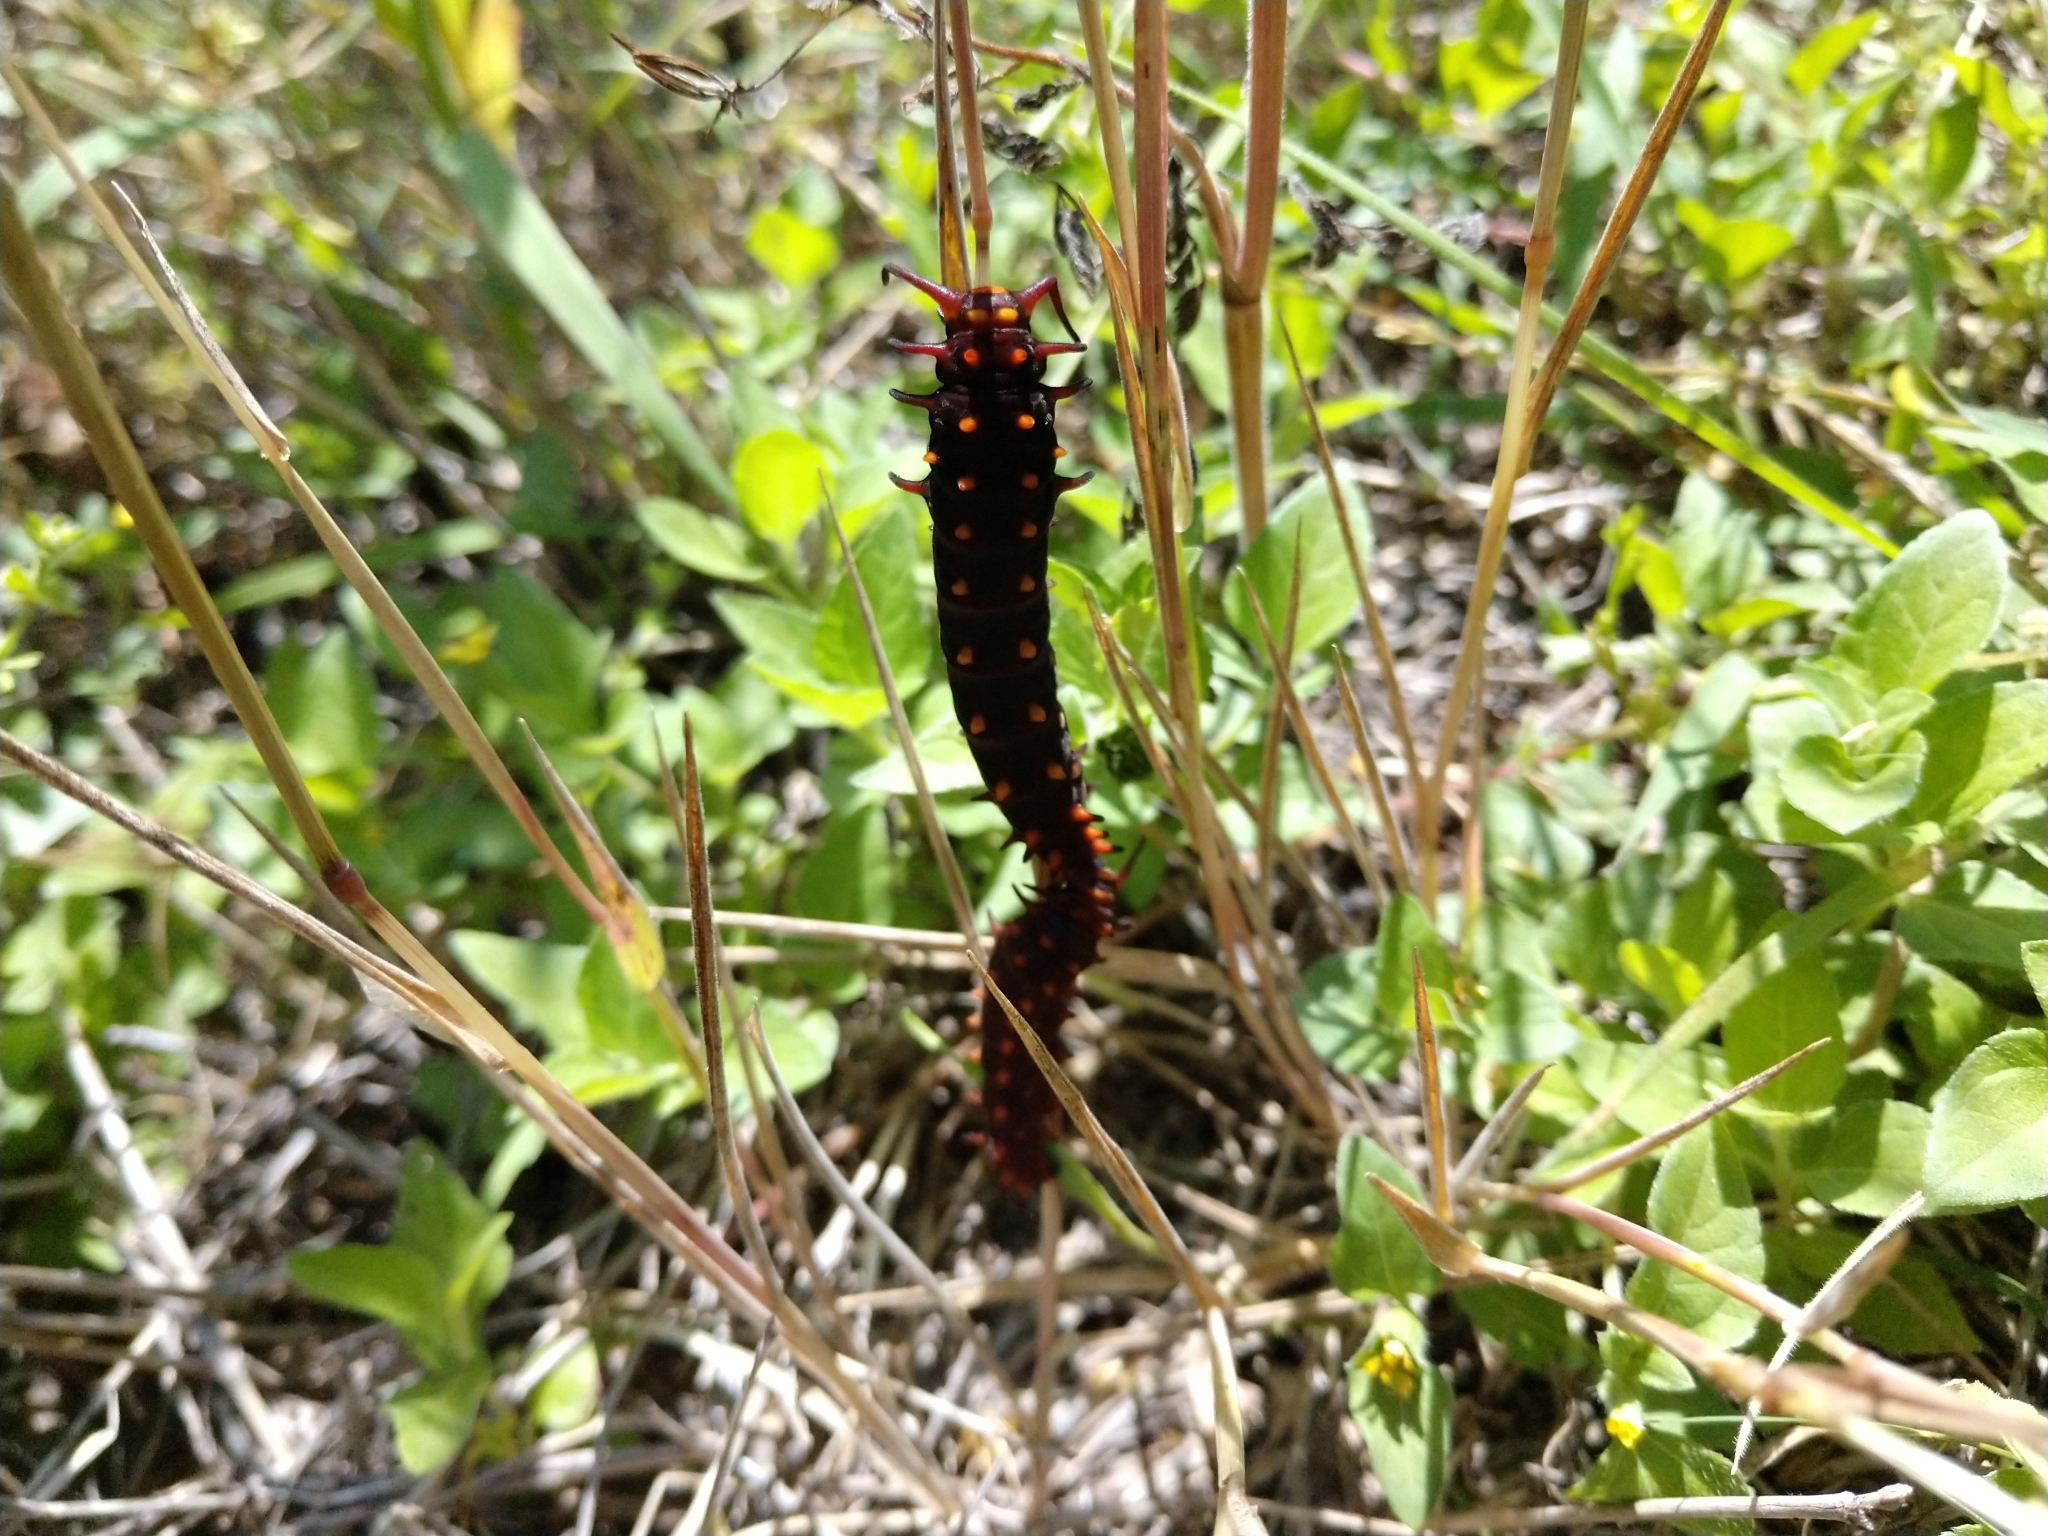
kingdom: Animalia
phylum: Arthropoda
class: Insecta
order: Lepidoptera
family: Papilionidae
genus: Battus
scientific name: Battus philenor
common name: Pipevine swallowtail
